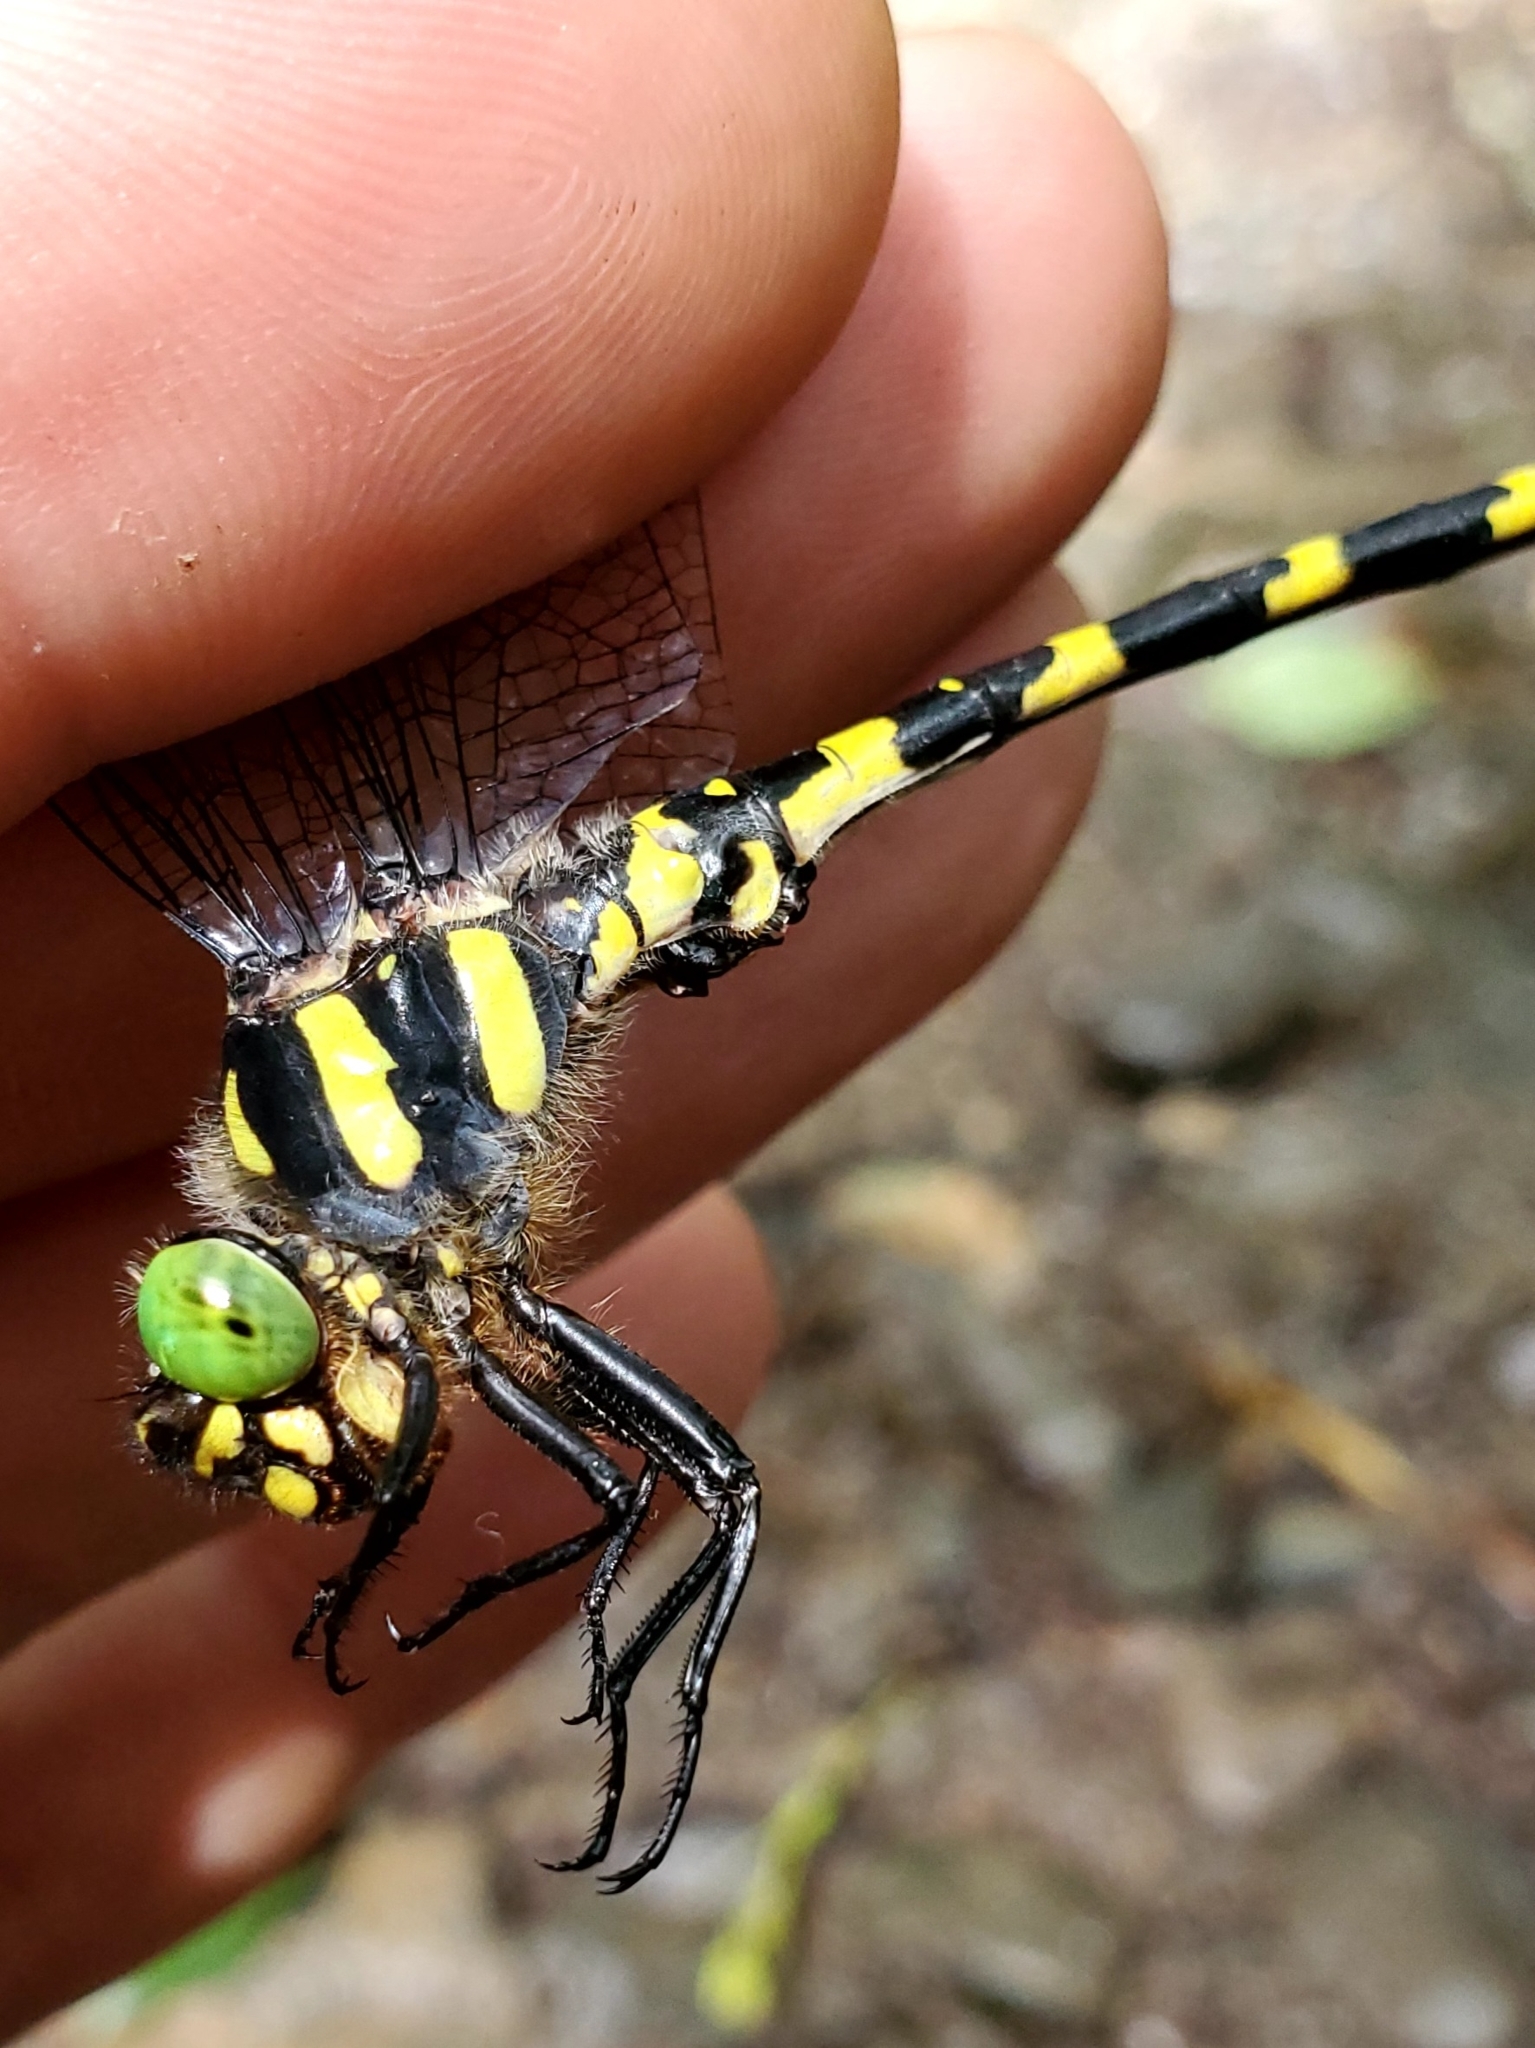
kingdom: Animalia
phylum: Arthropoda
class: Insecta
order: Odonata
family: Cordulegastridae
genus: Cordulegaster
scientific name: Cordulegaster erronea
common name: Tiger spiketail
